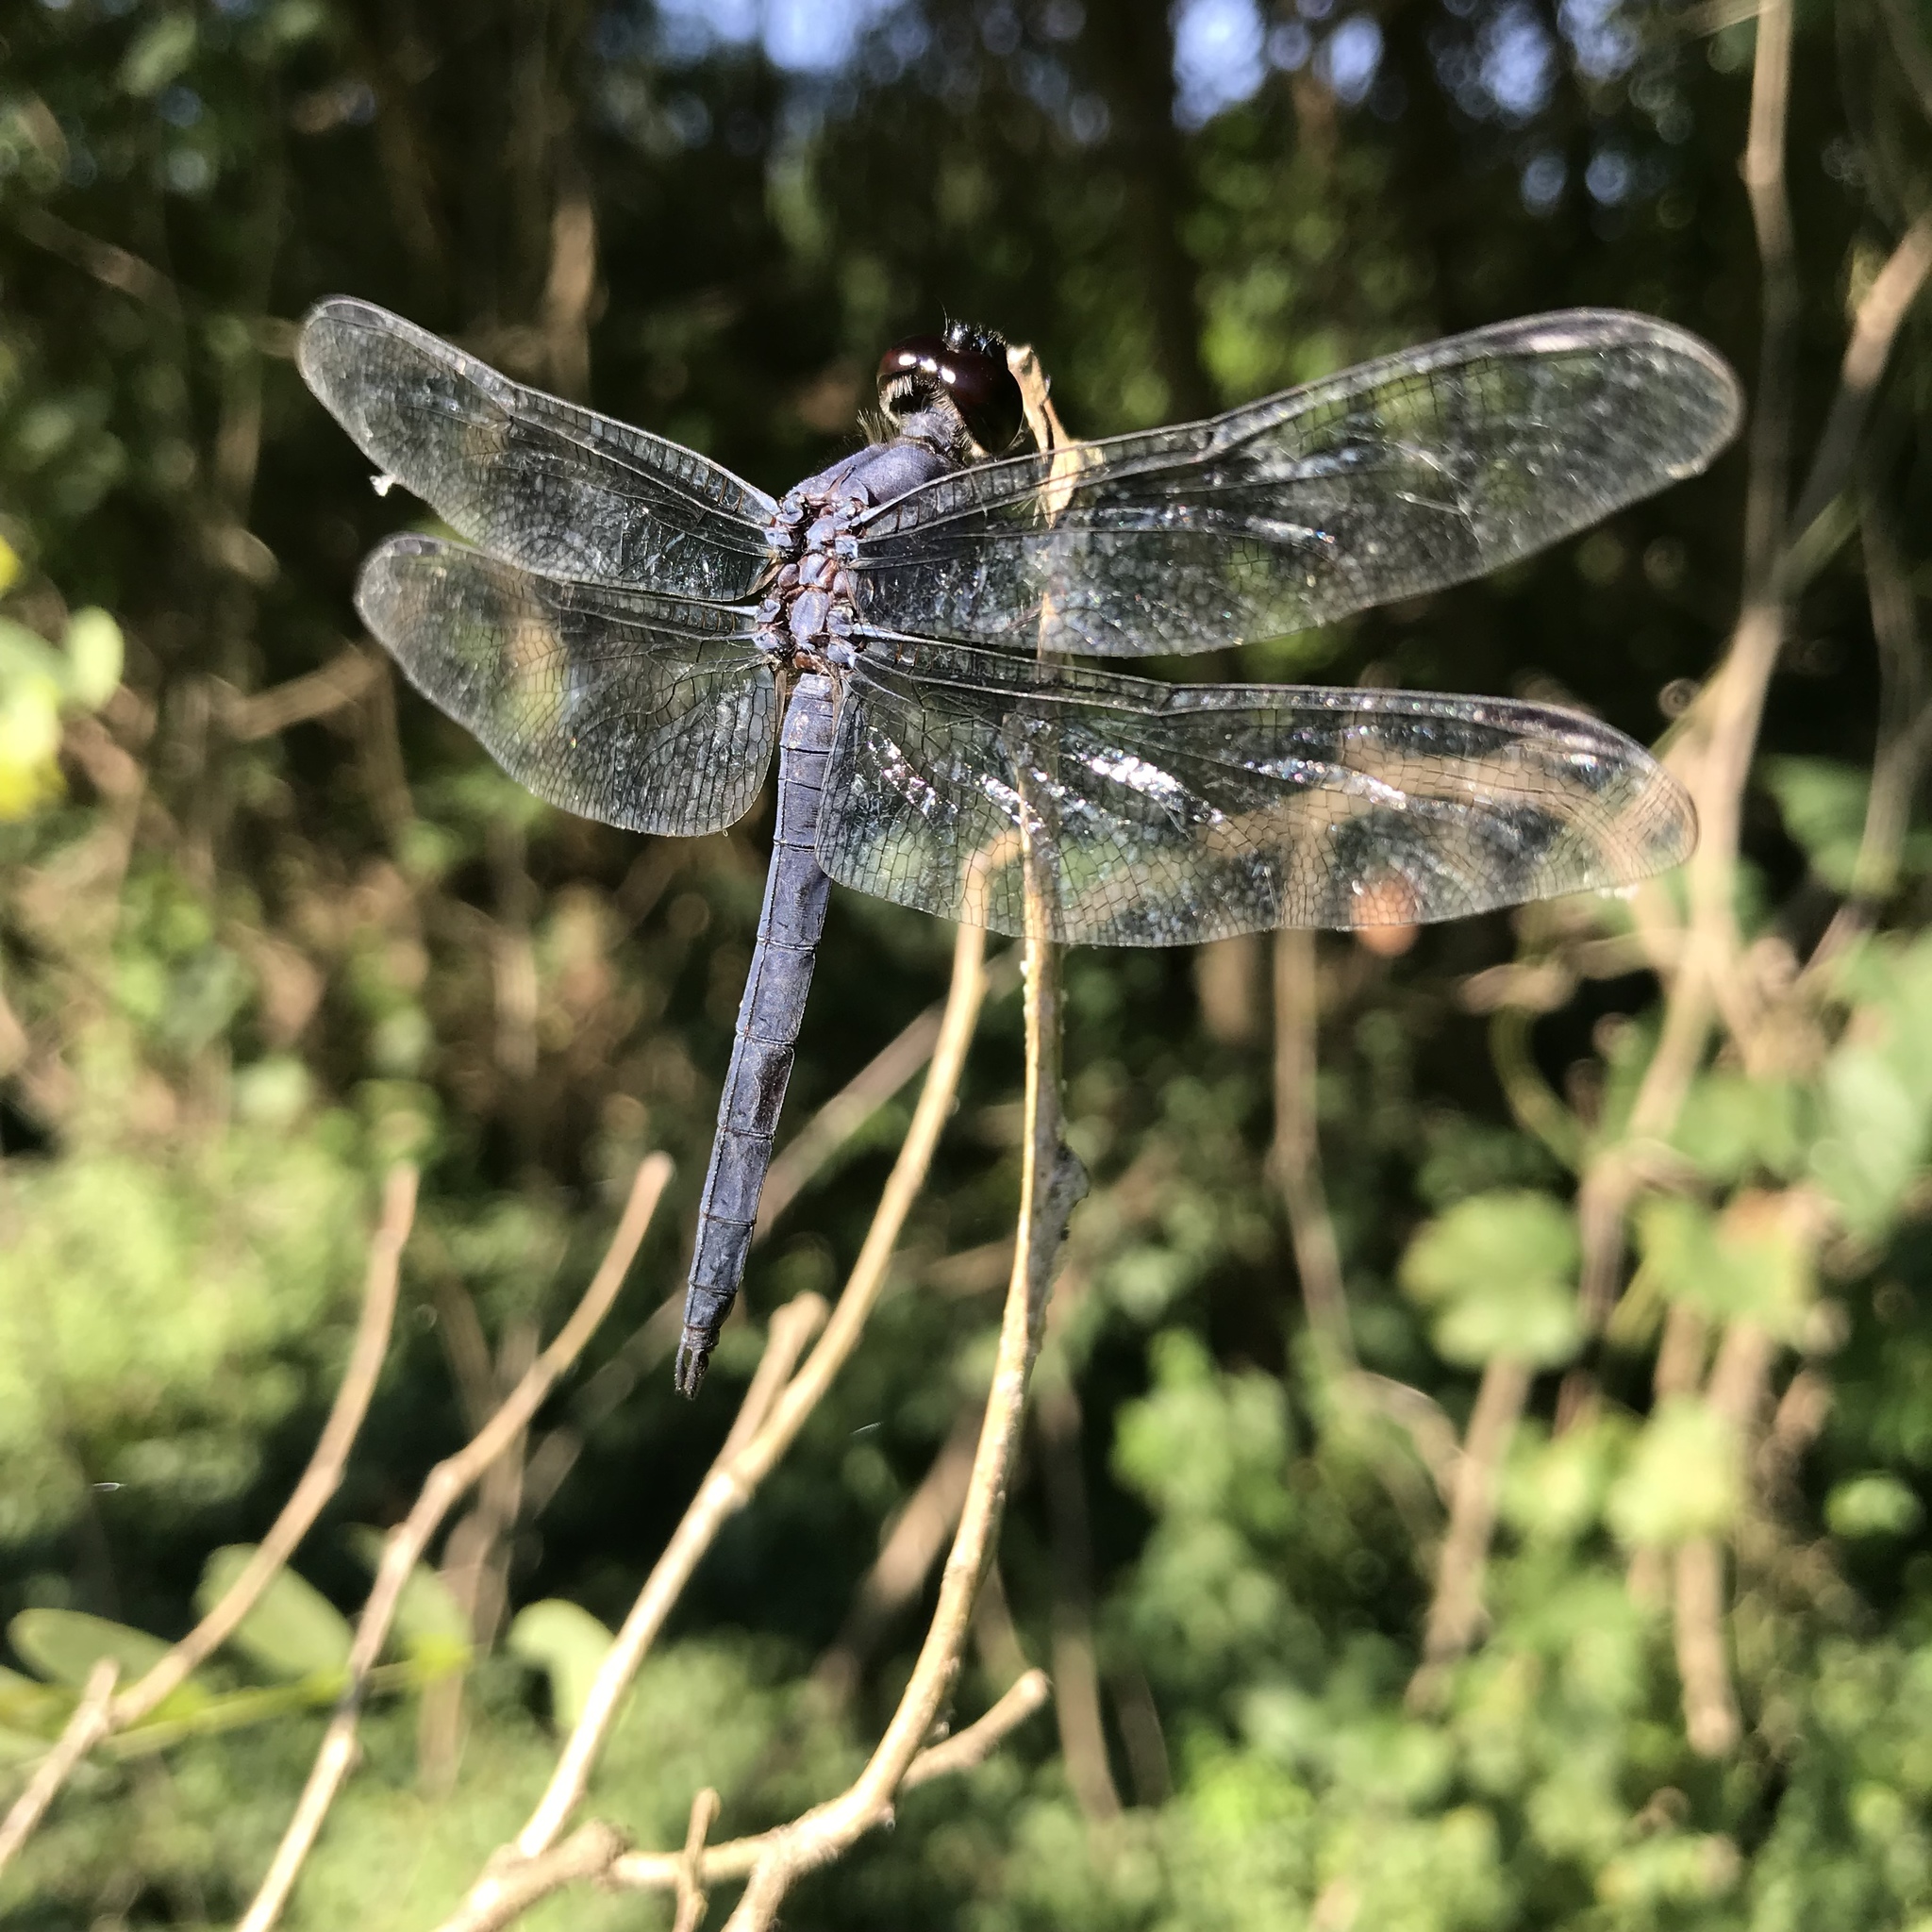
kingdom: Animalia
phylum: Arthropoda
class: Insecta
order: Odonata
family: Libellulidae
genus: Libellula
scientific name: Libellula incesta
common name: Slaty skimmer
